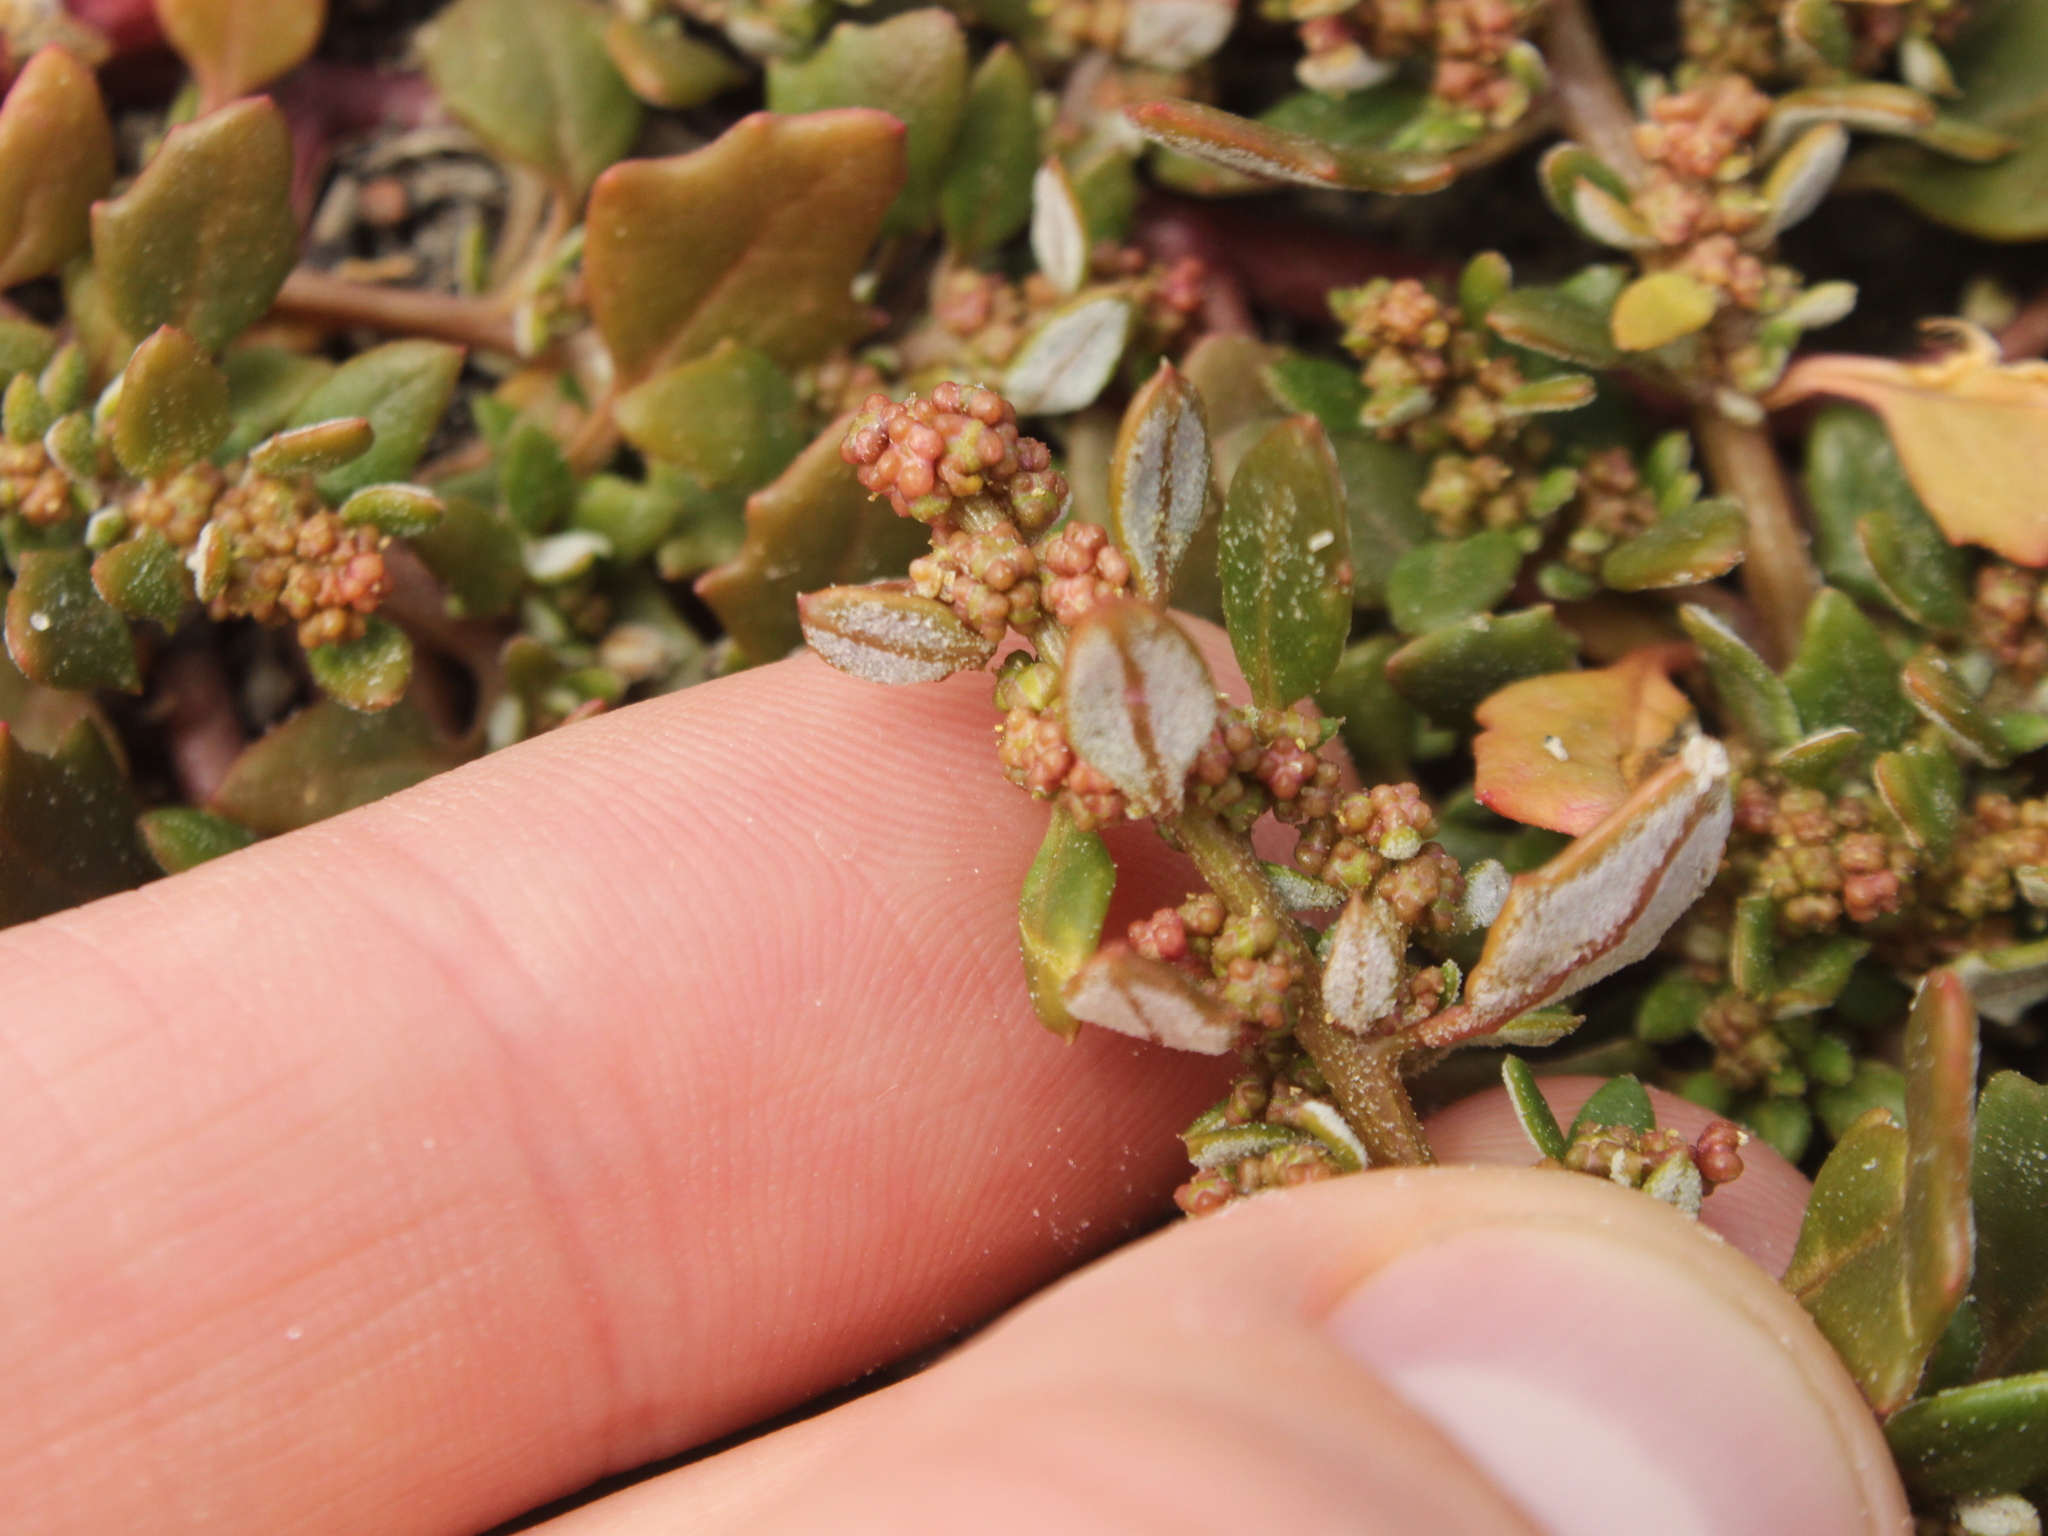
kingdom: Plantae
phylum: Tracheophyta
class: Magnoliopsida
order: Caryophyllales
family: Amaranthaceae
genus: Oxybasis
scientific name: Oxybasis ambigua
